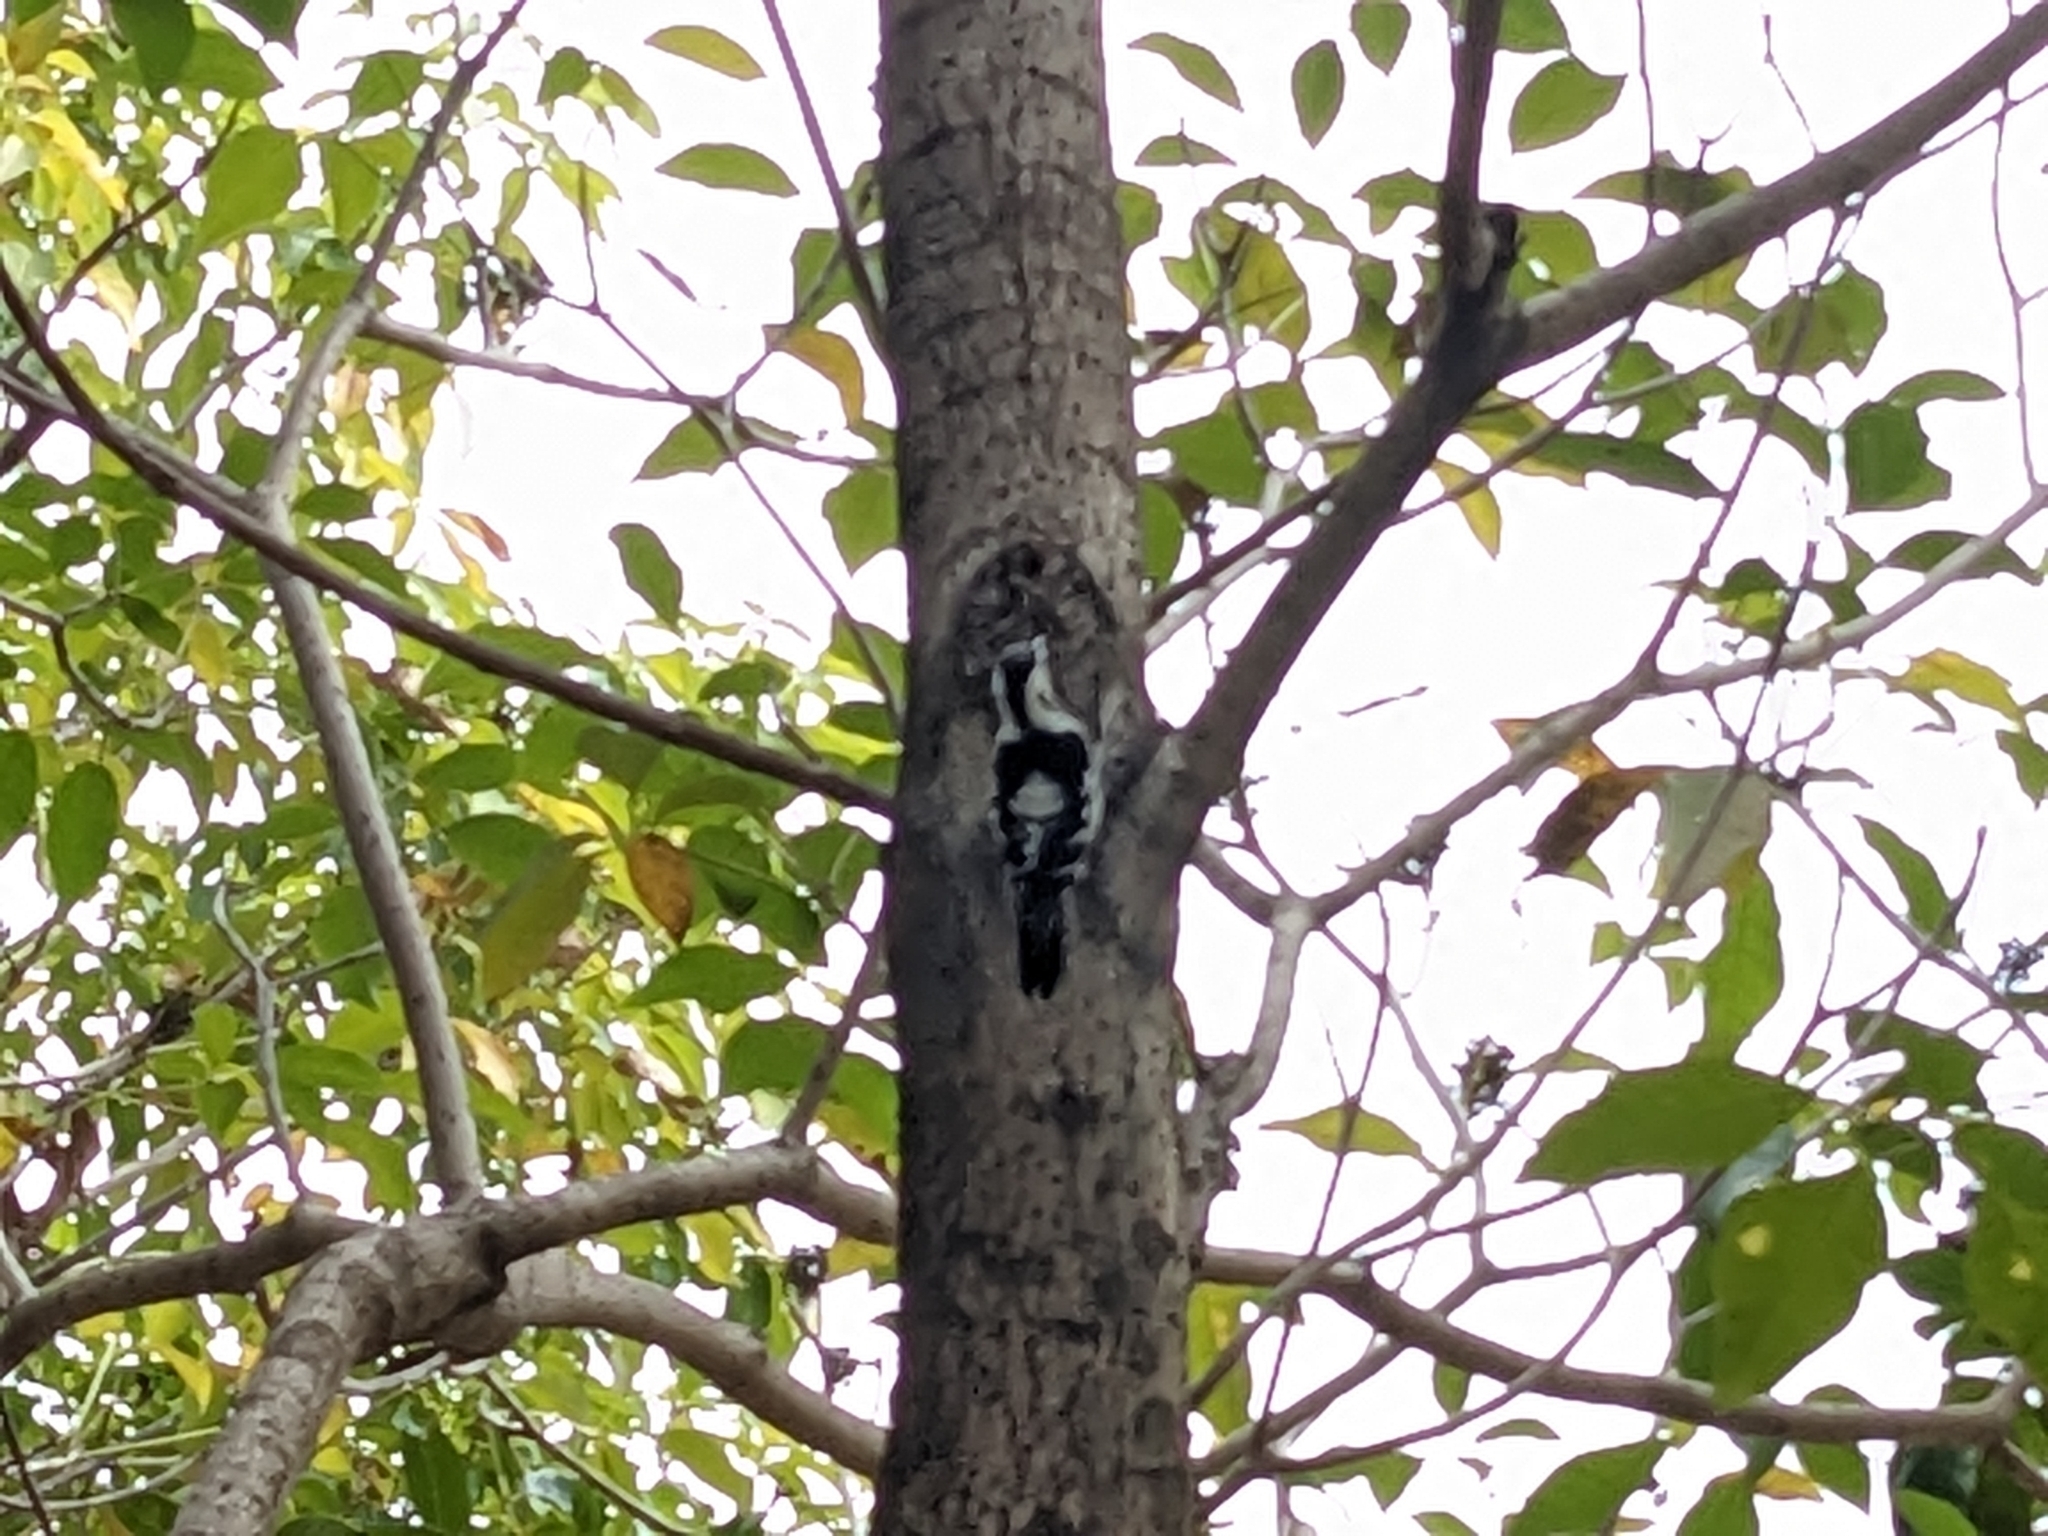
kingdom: Animalia
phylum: Chordata
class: Aves
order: Piciformes
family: Picidae
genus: Yungipicus
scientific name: Yungipicus canicapillus
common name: Grey-capped pygmy woodpecker
